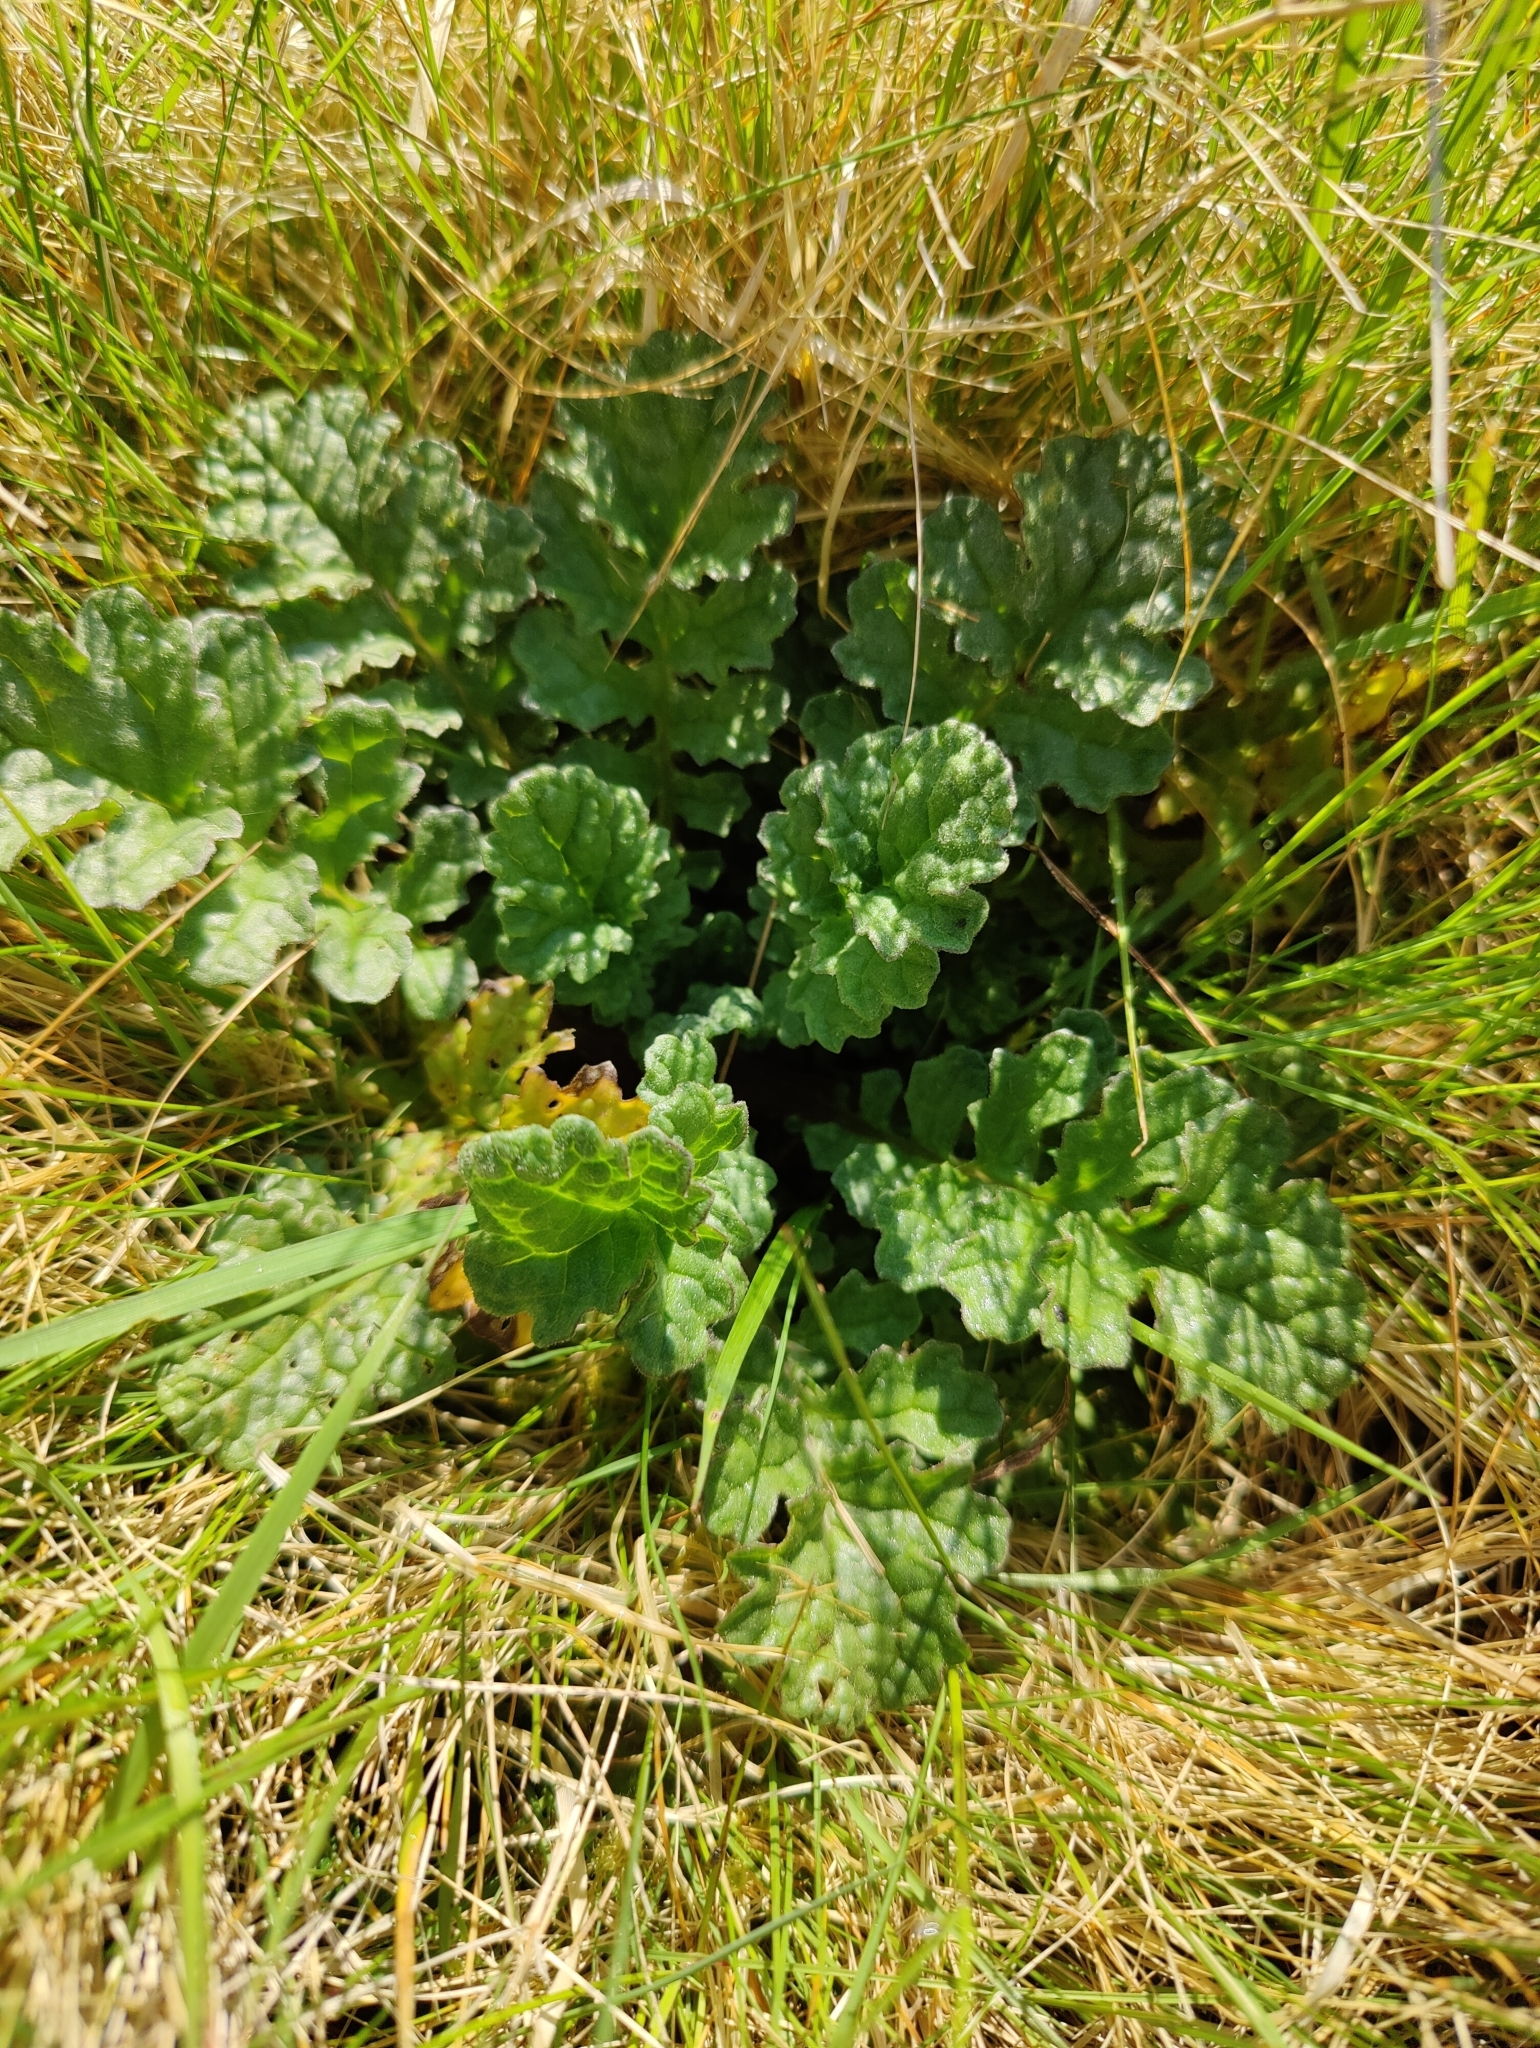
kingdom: Plantae
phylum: Tracheophyta
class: Magnoliopsida
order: Asterales
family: Asteraceae
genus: Jacobaea
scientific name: Jacobaea vulgaris
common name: Stinking willie
